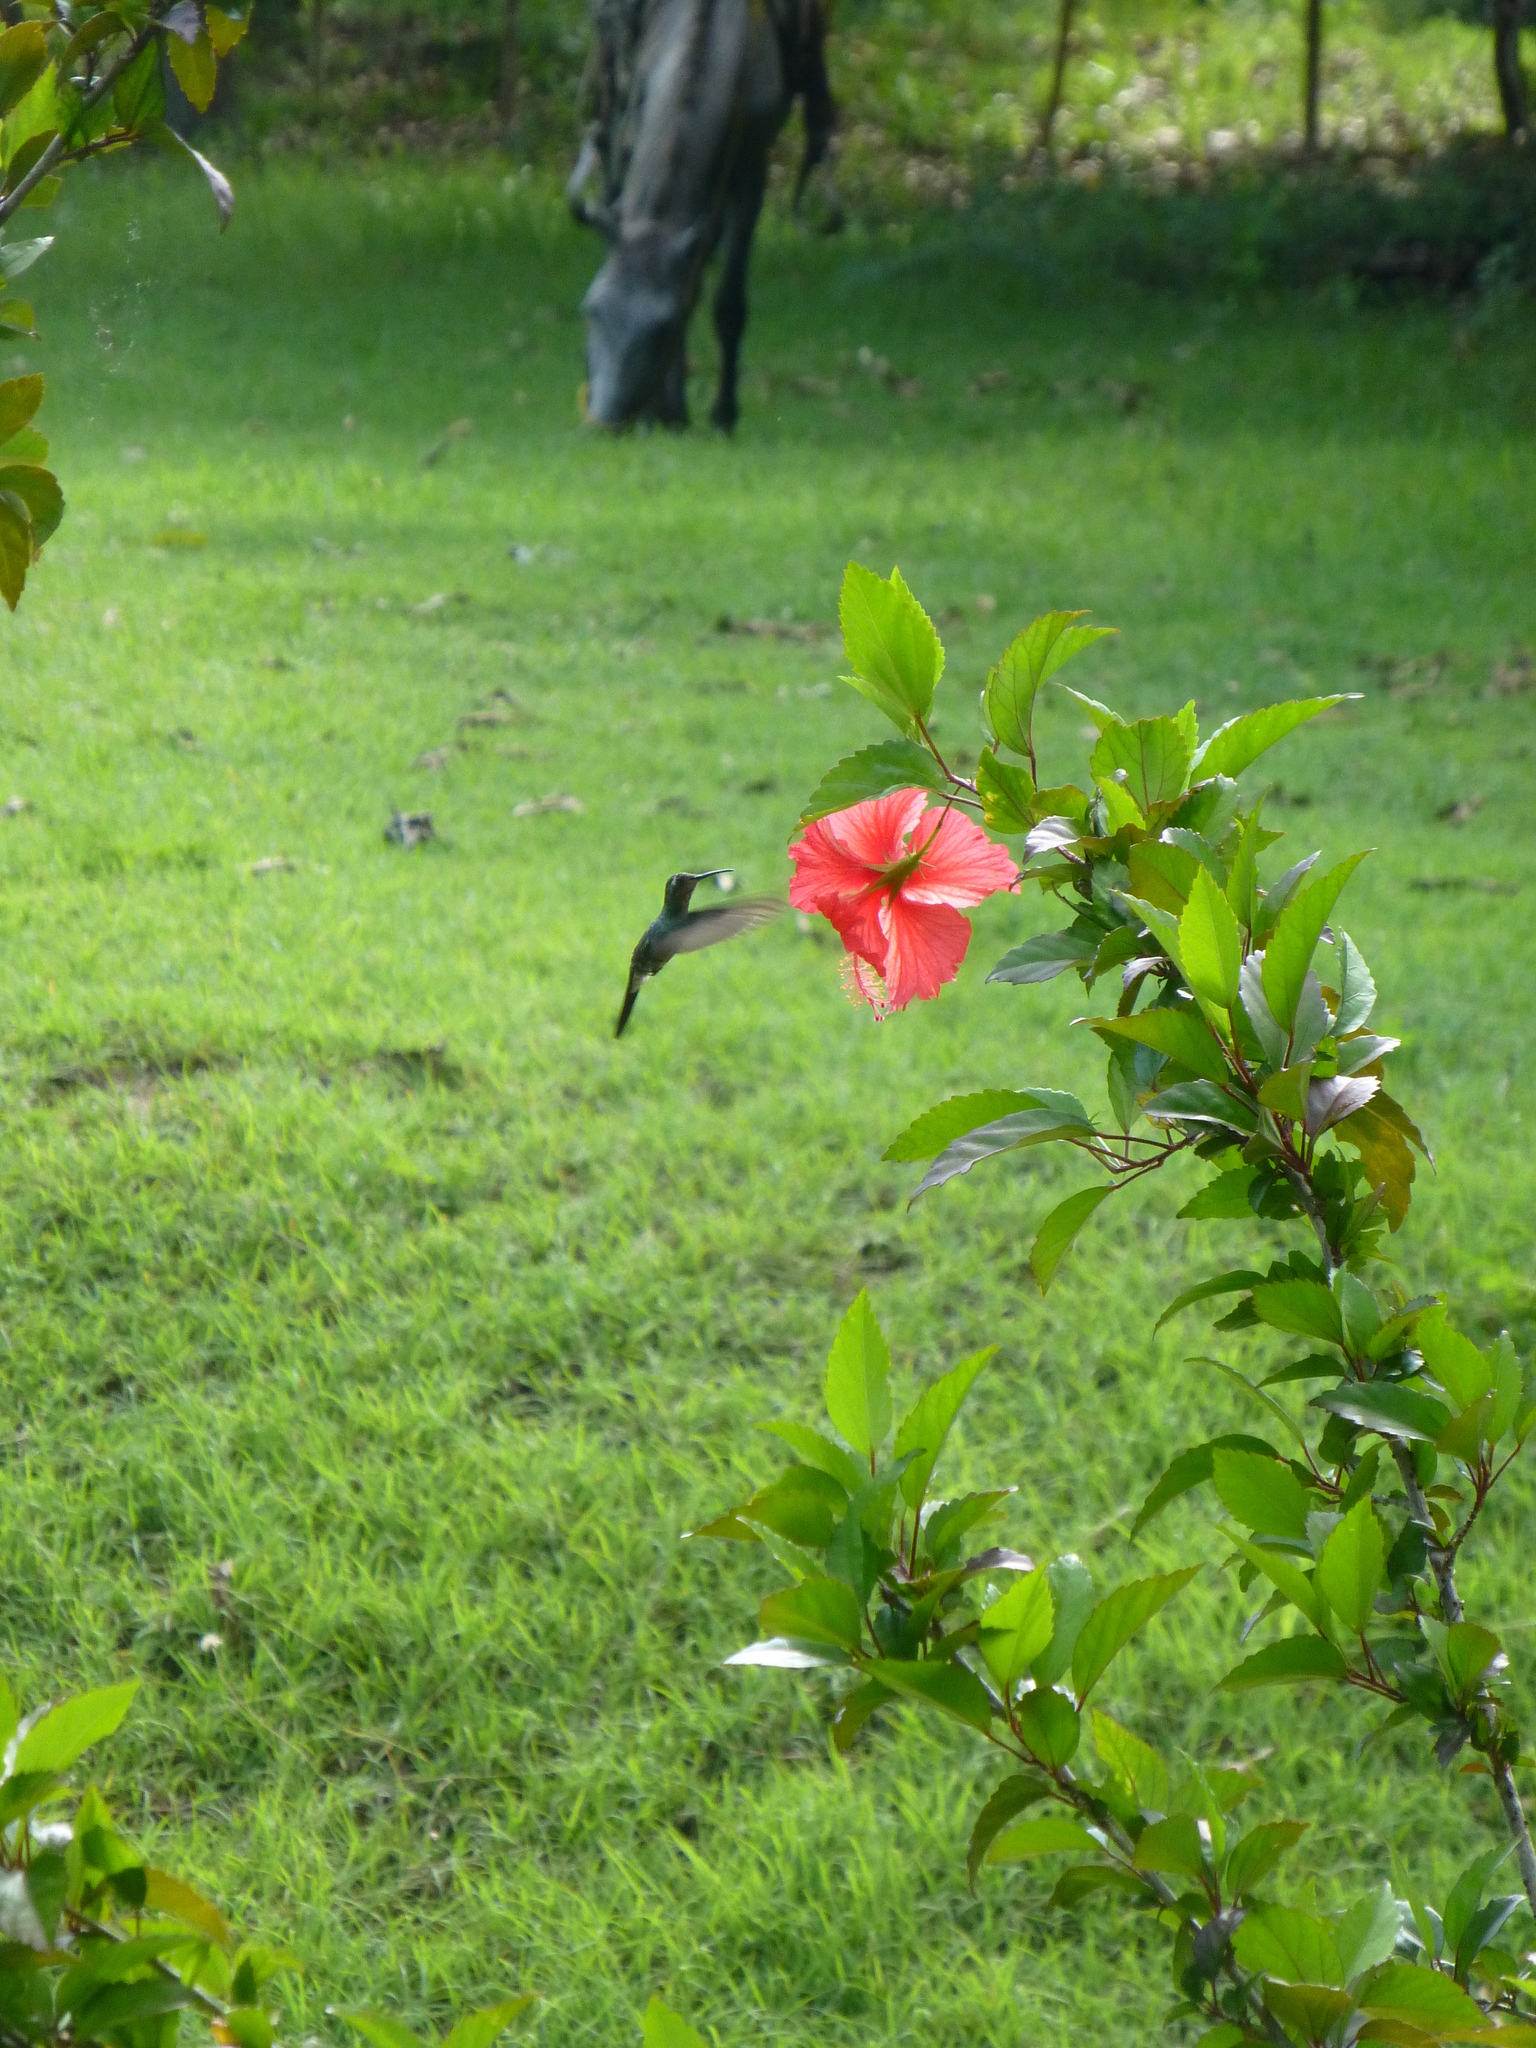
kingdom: Animalia
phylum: Chordata
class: Aves
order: Apodiformes
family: Trochilidae
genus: Riccordia
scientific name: Riccordia ricordii
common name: Cuban emerald
